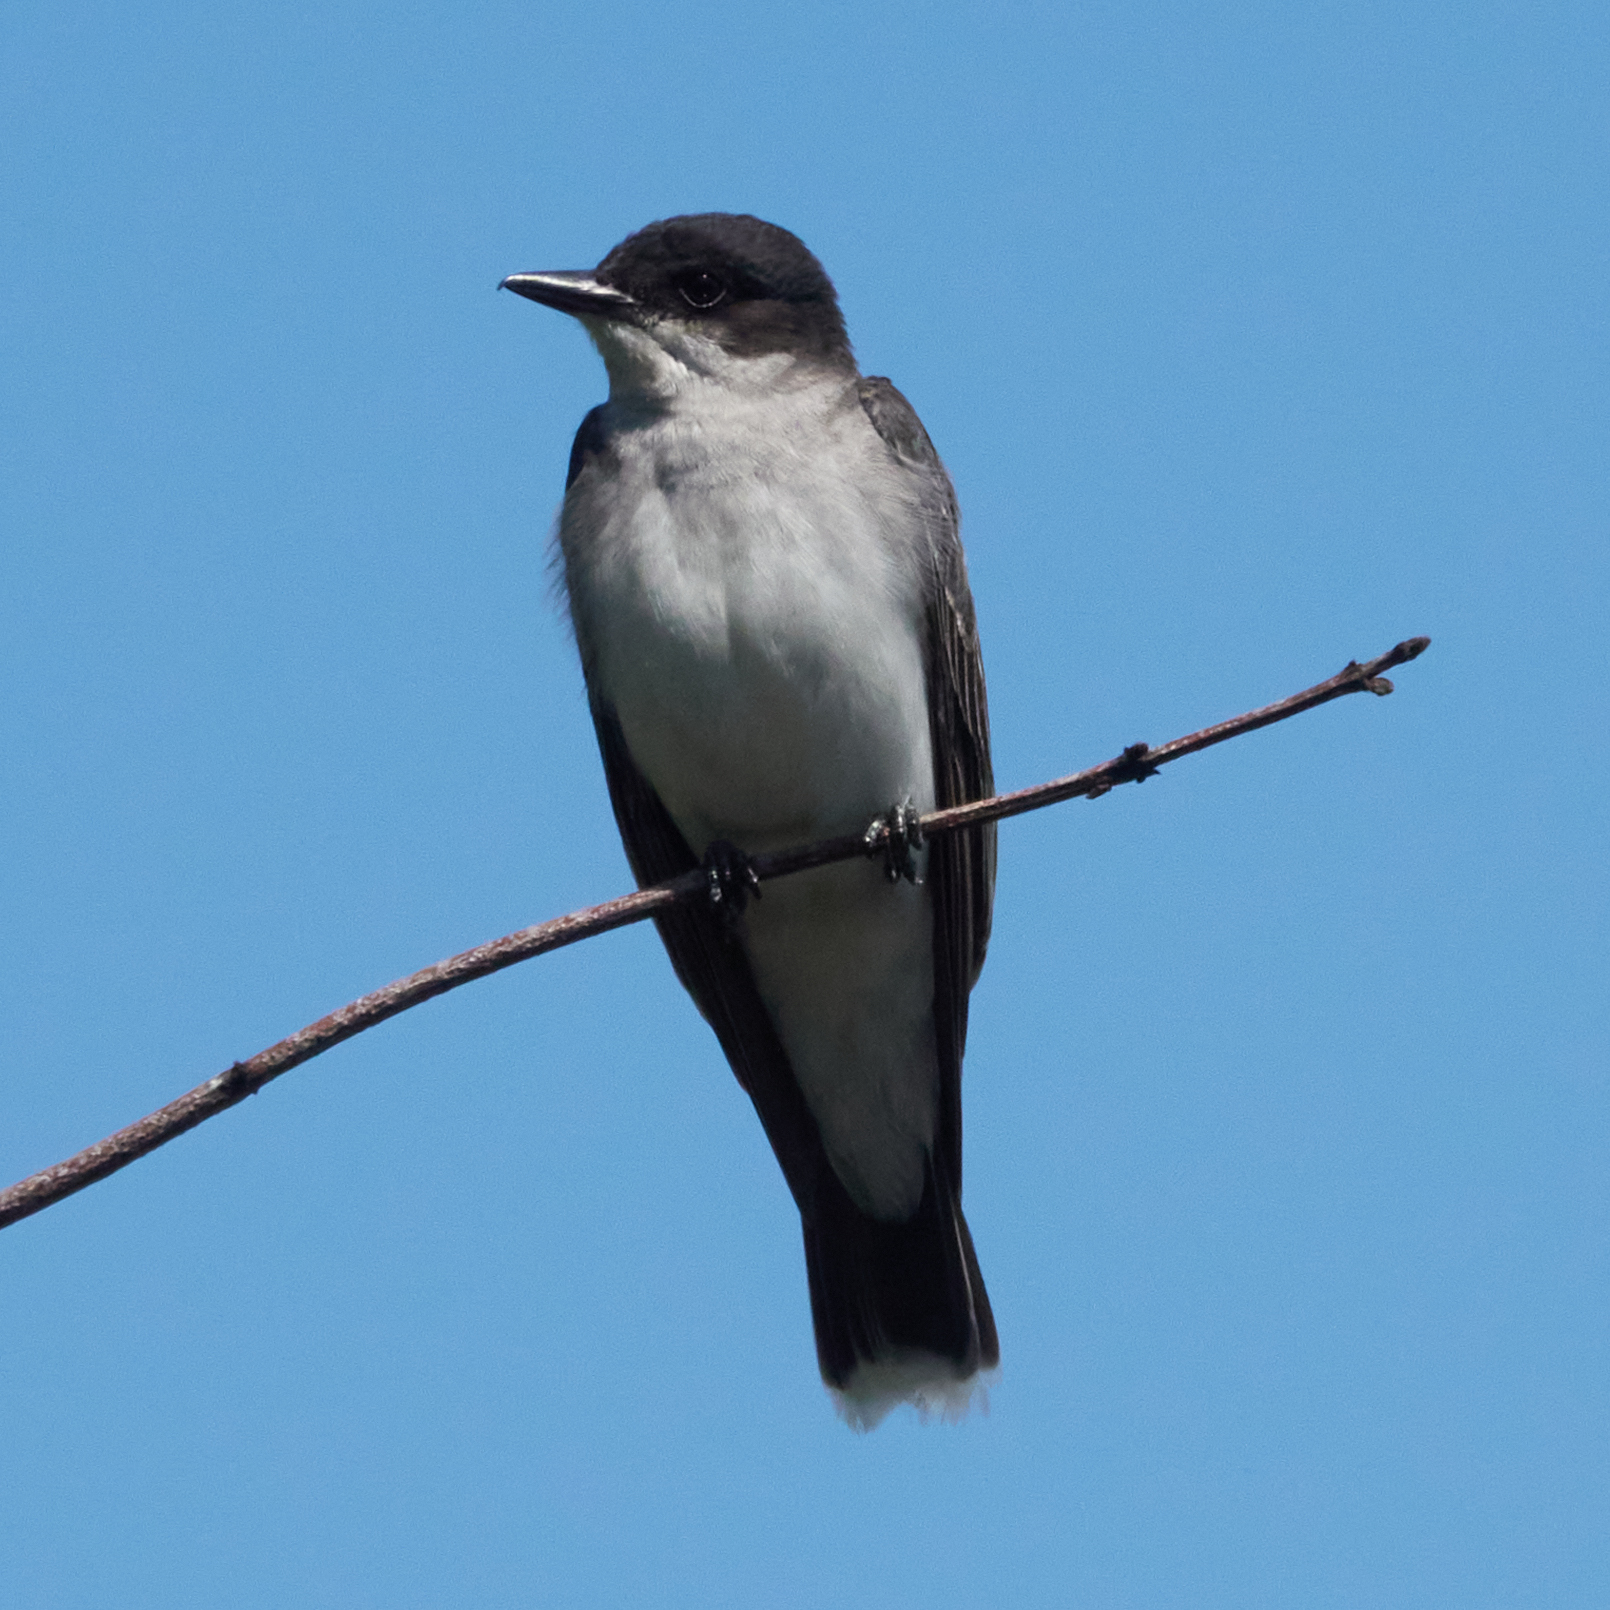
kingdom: Animalia
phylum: Chordata
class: Aves
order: Passeriformes
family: Tyrannidae
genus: Tyrannus
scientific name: Tyrannus tyrannus
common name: Eastern kingbird
